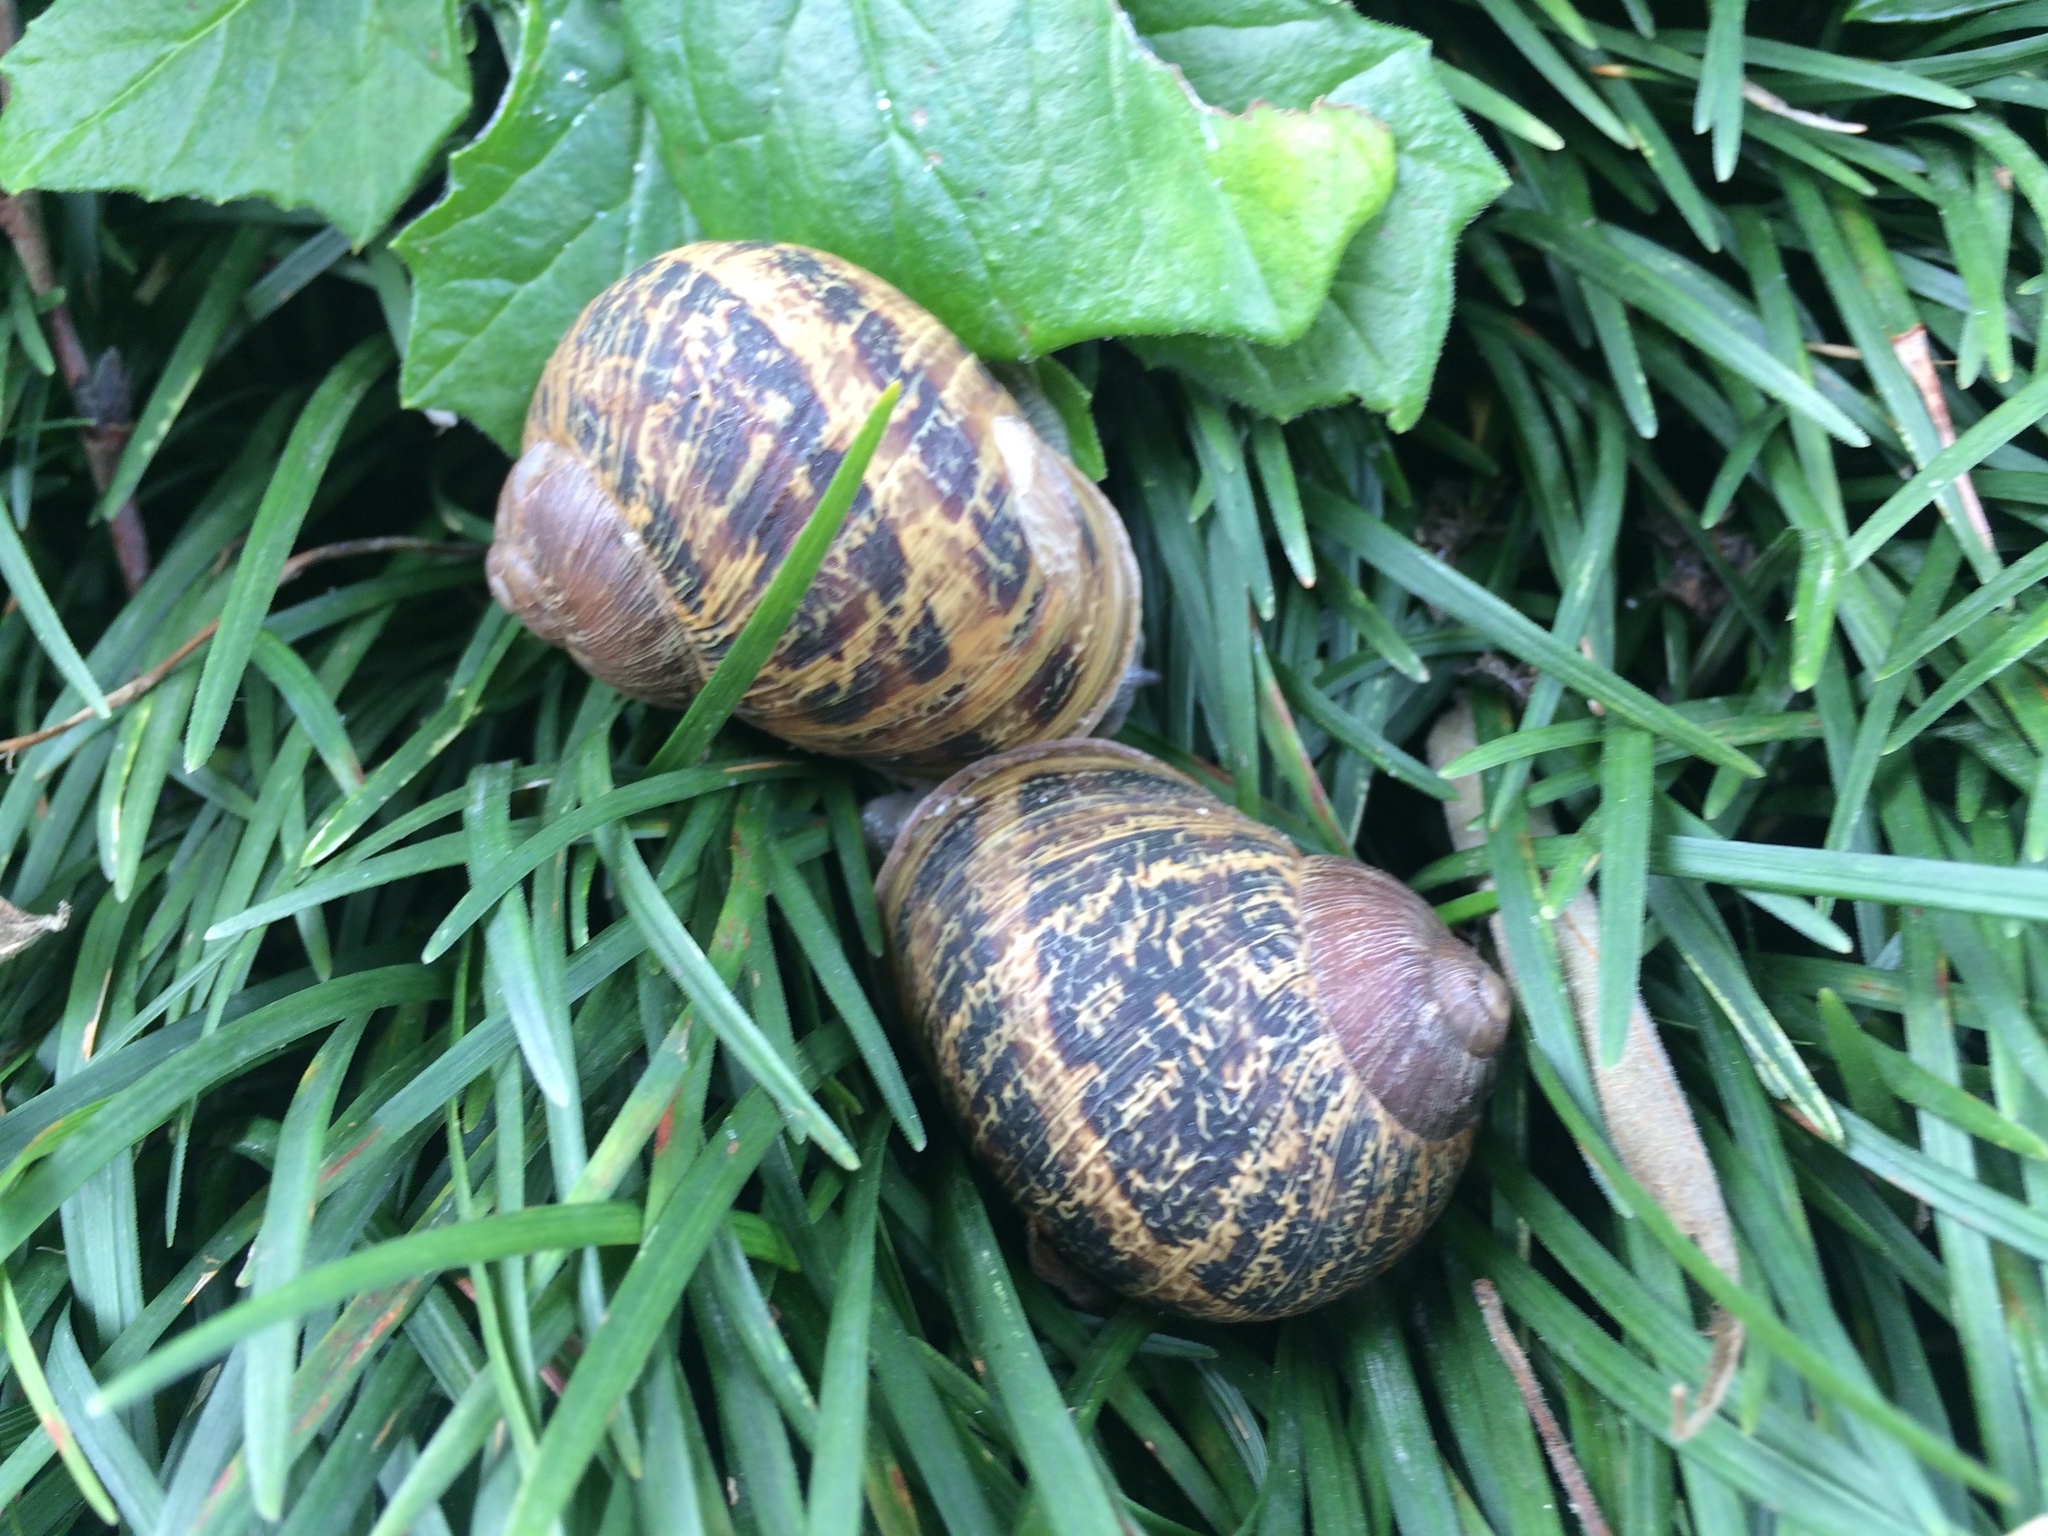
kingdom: Animalia
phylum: Mollusca
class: Gastropoda
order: Stylommatophora
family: Helicidae
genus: Cornu
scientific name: Cornu aspersum
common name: Brown garden snail
